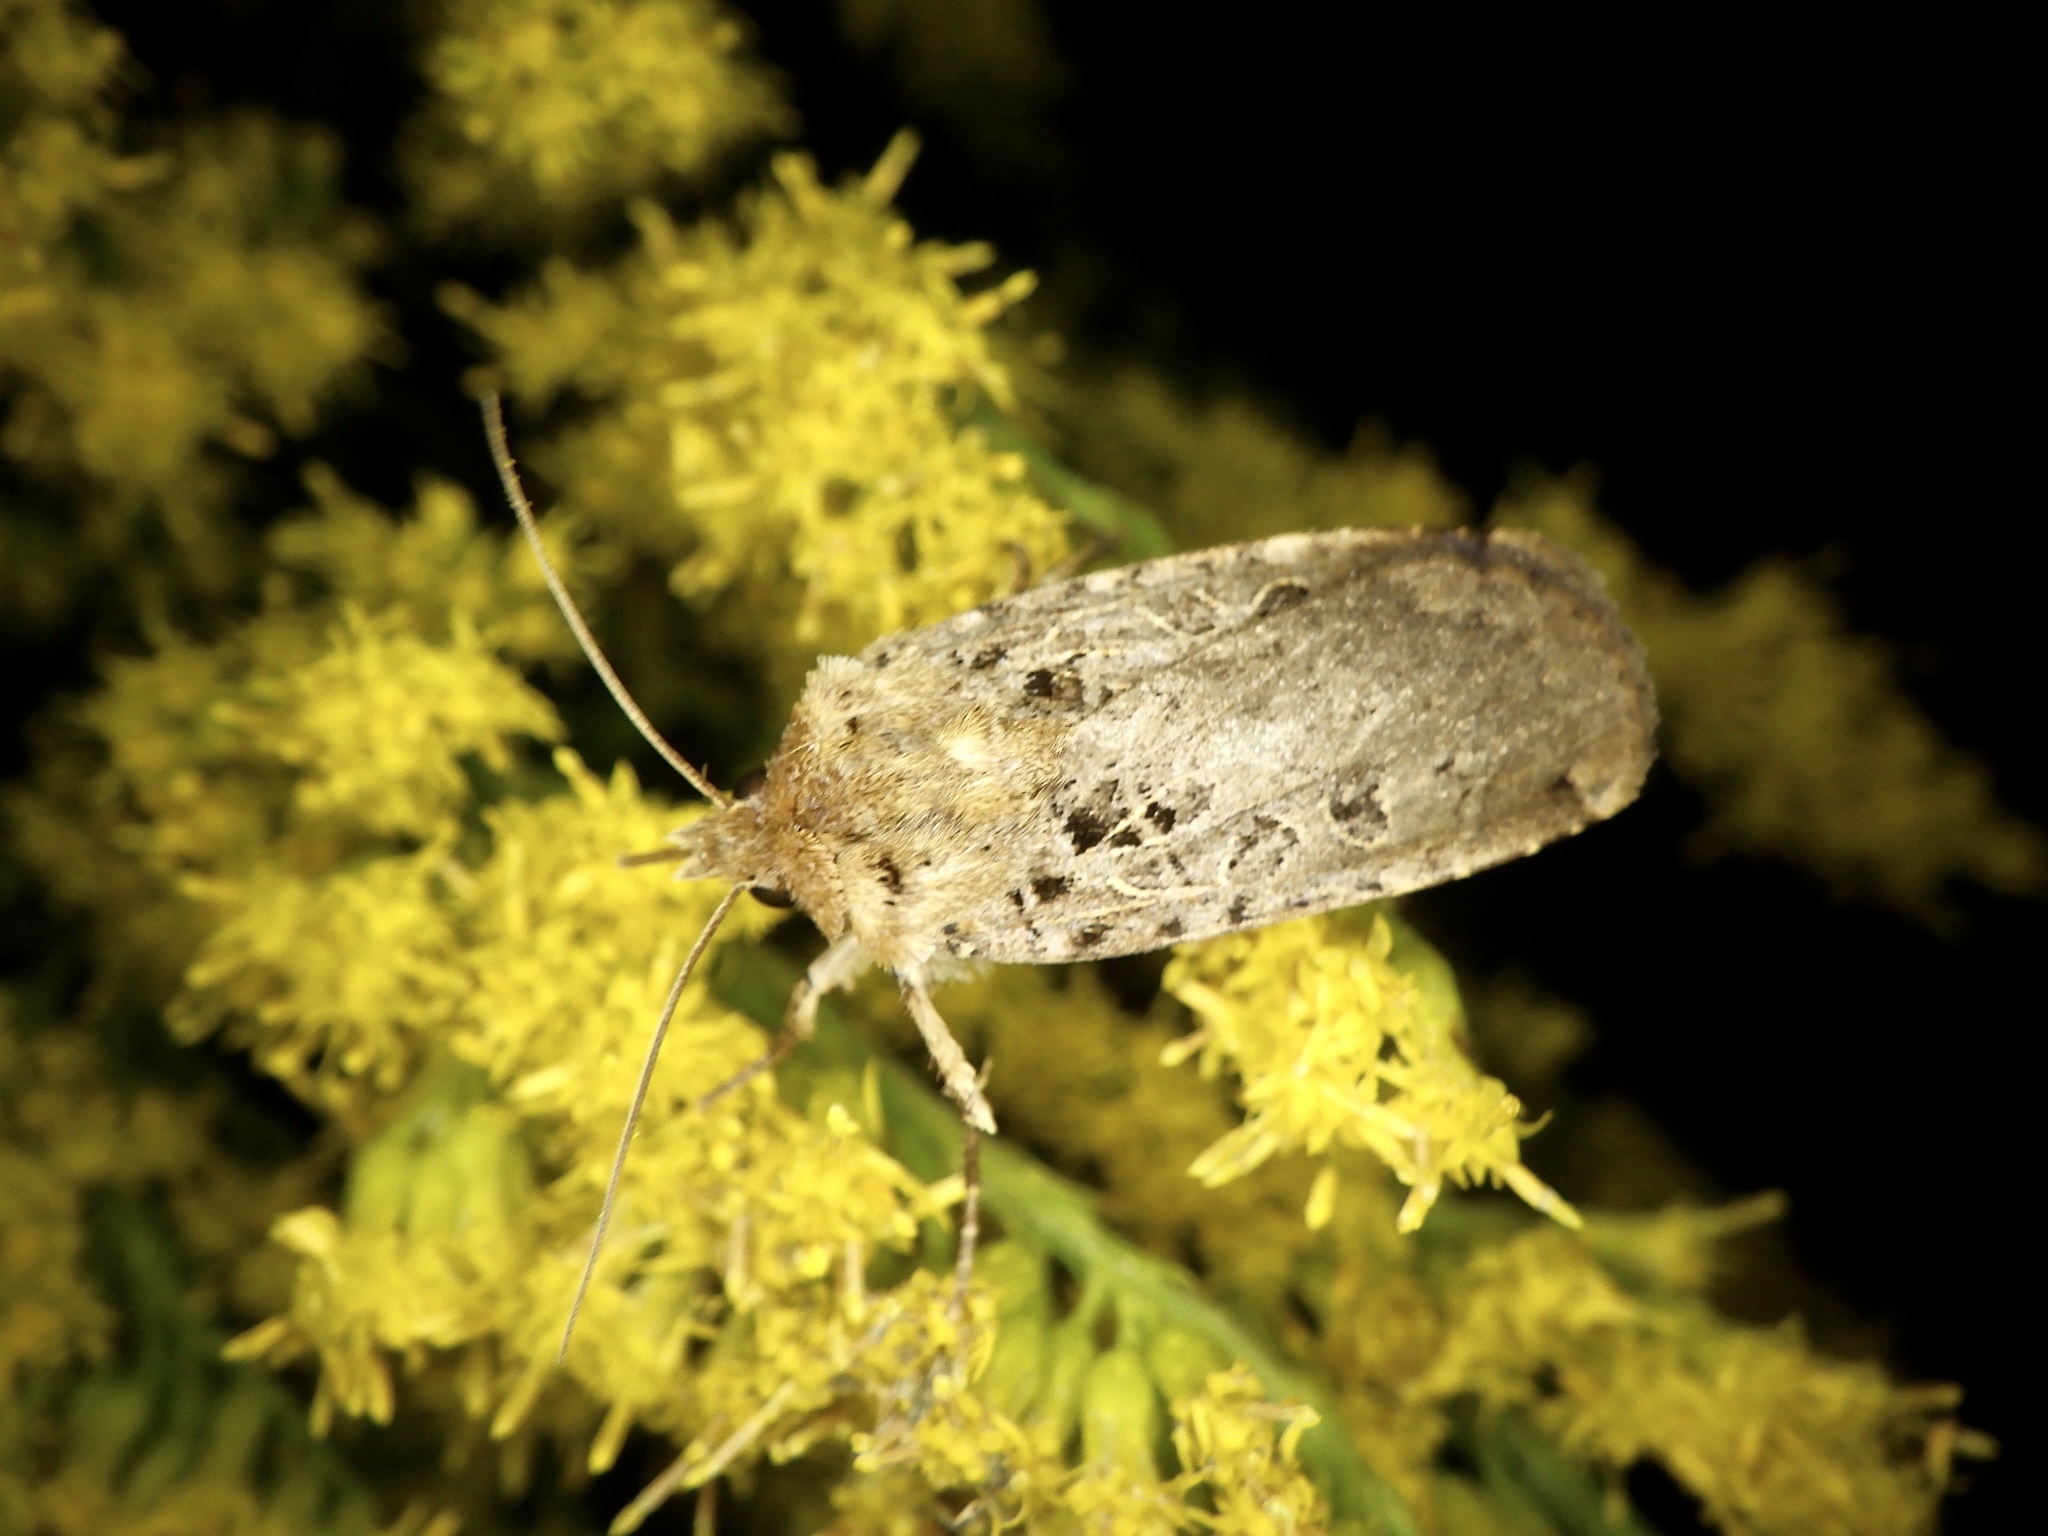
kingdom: Animalia
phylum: Arthropoda
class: Insecta
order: Lepidoptera
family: Noctuidae
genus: Hermonassa
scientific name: Hermonassa cecilia
